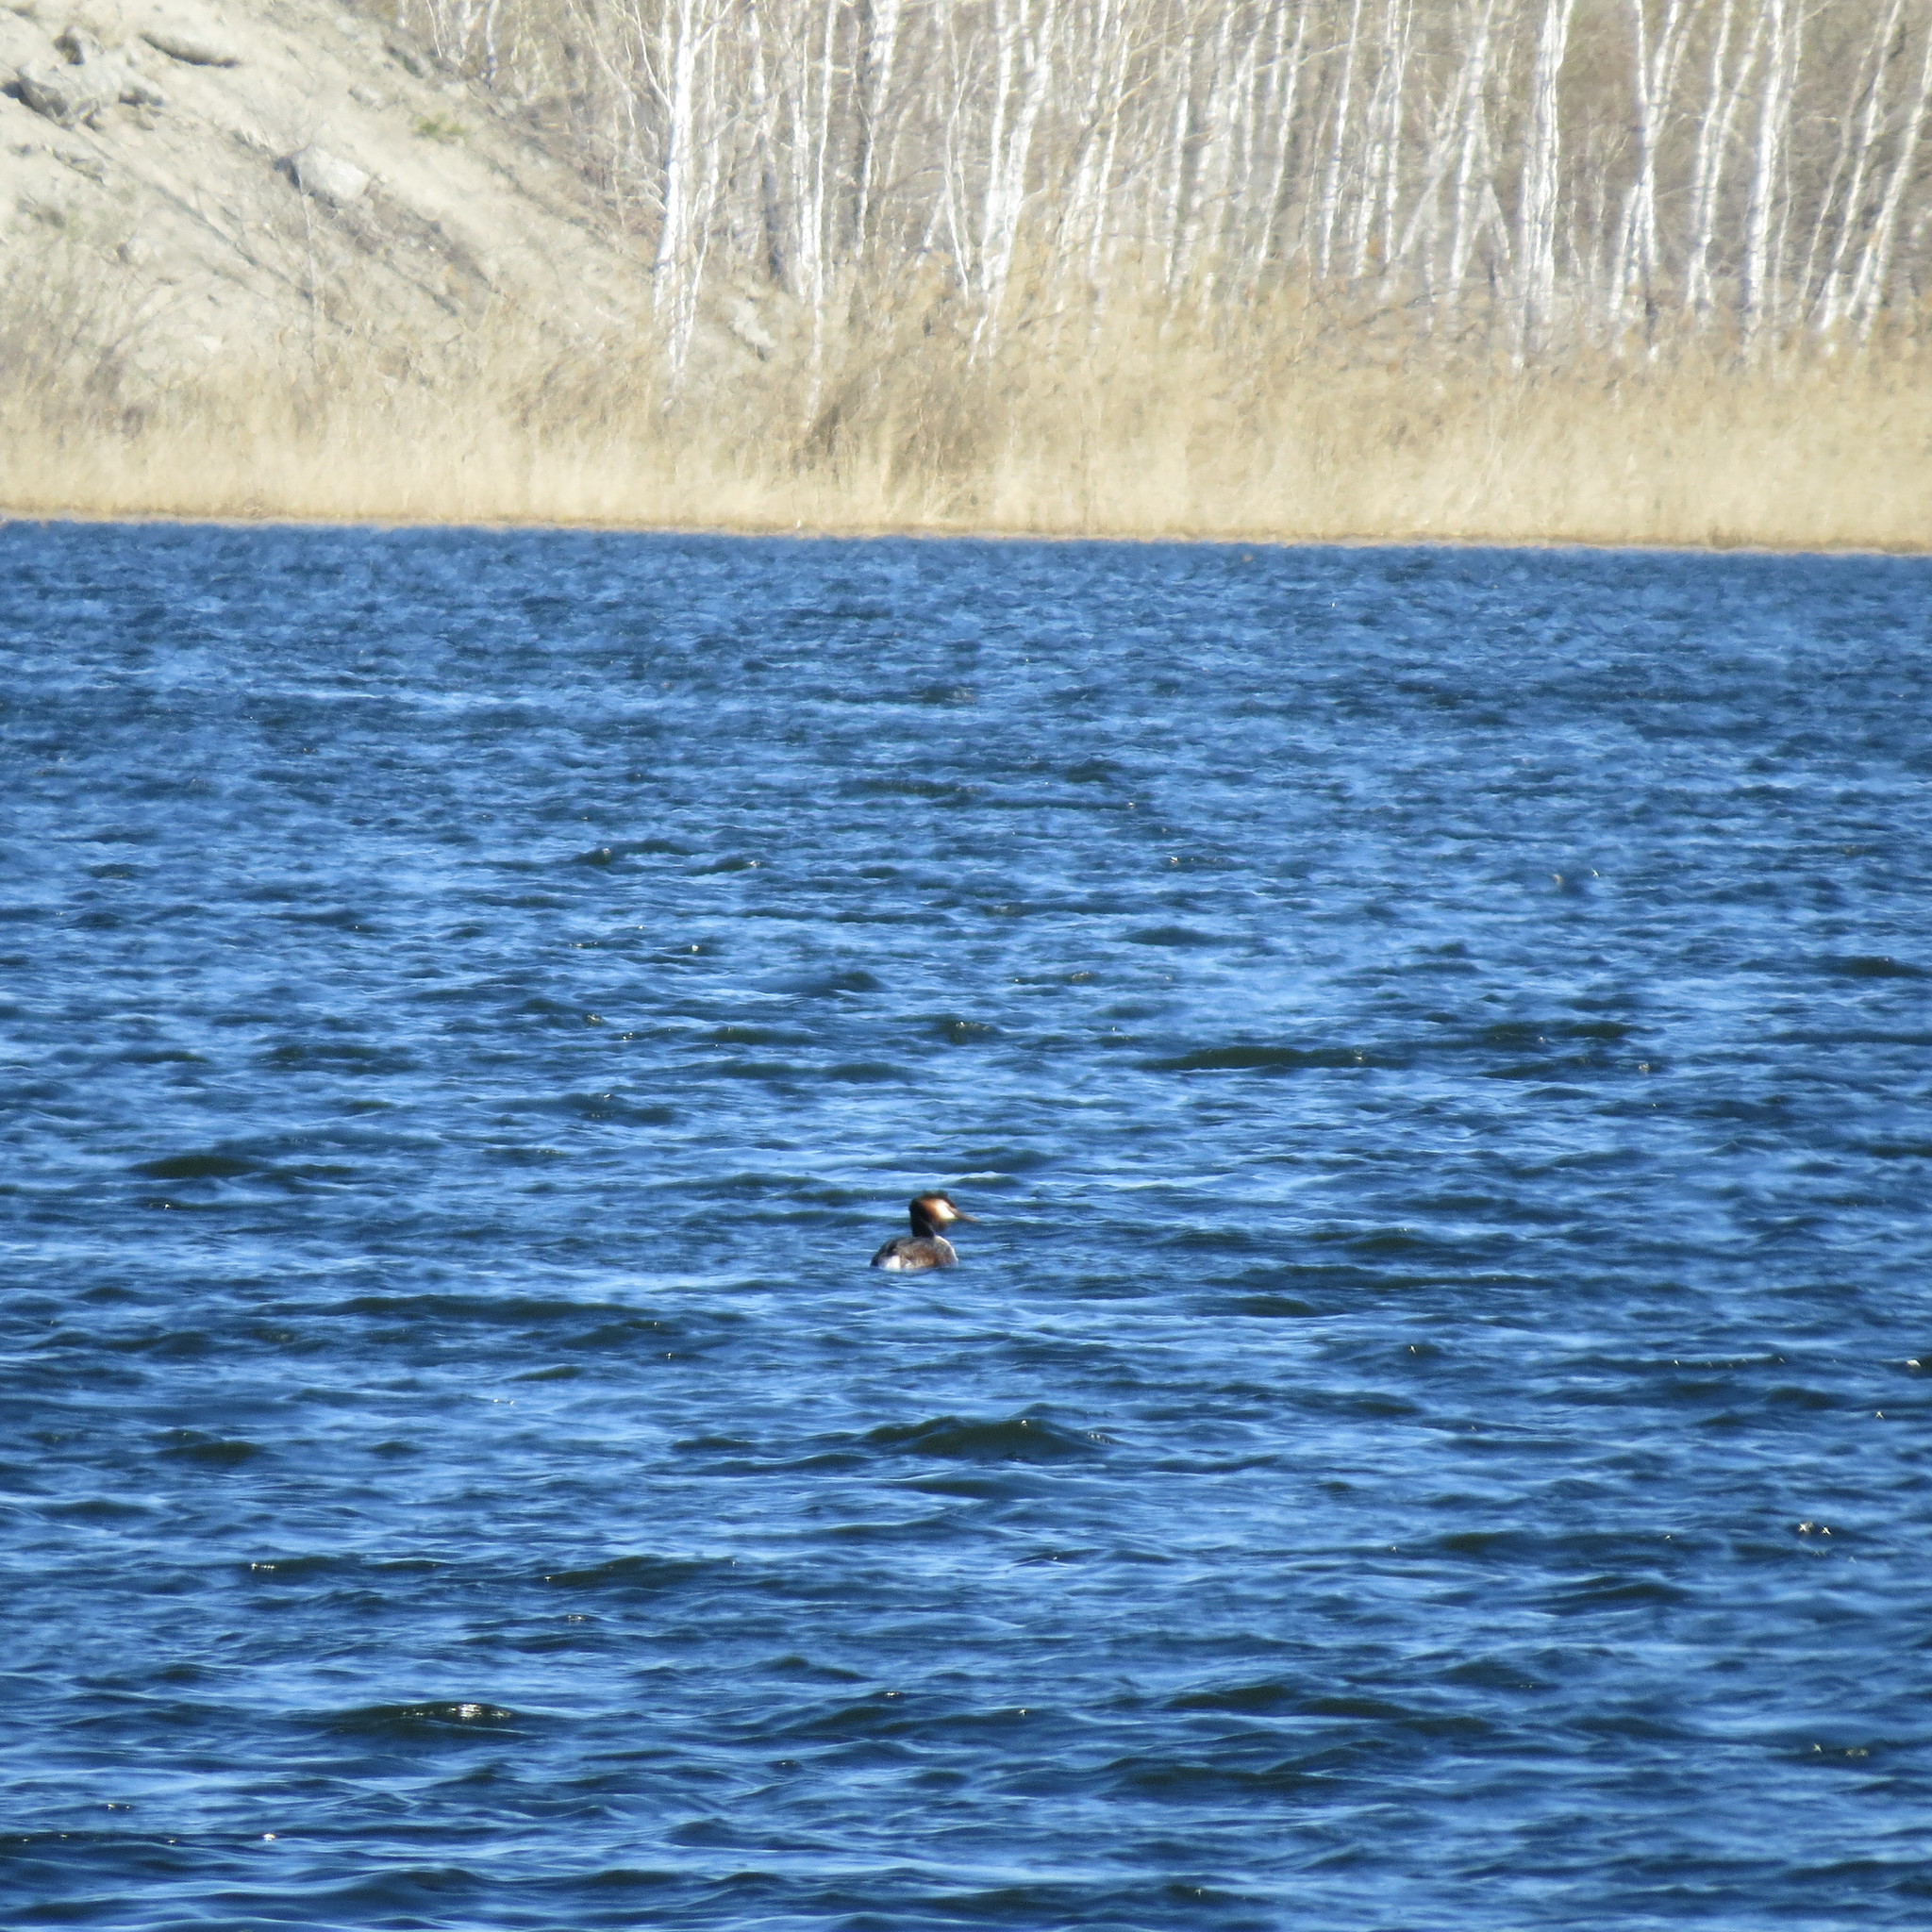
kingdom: Animalia
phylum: Chordata
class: Aves
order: Podicipediformes
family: Podicipedidae
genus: Podiceps
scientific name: Podiceps cristatus
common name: Great crested grebe
